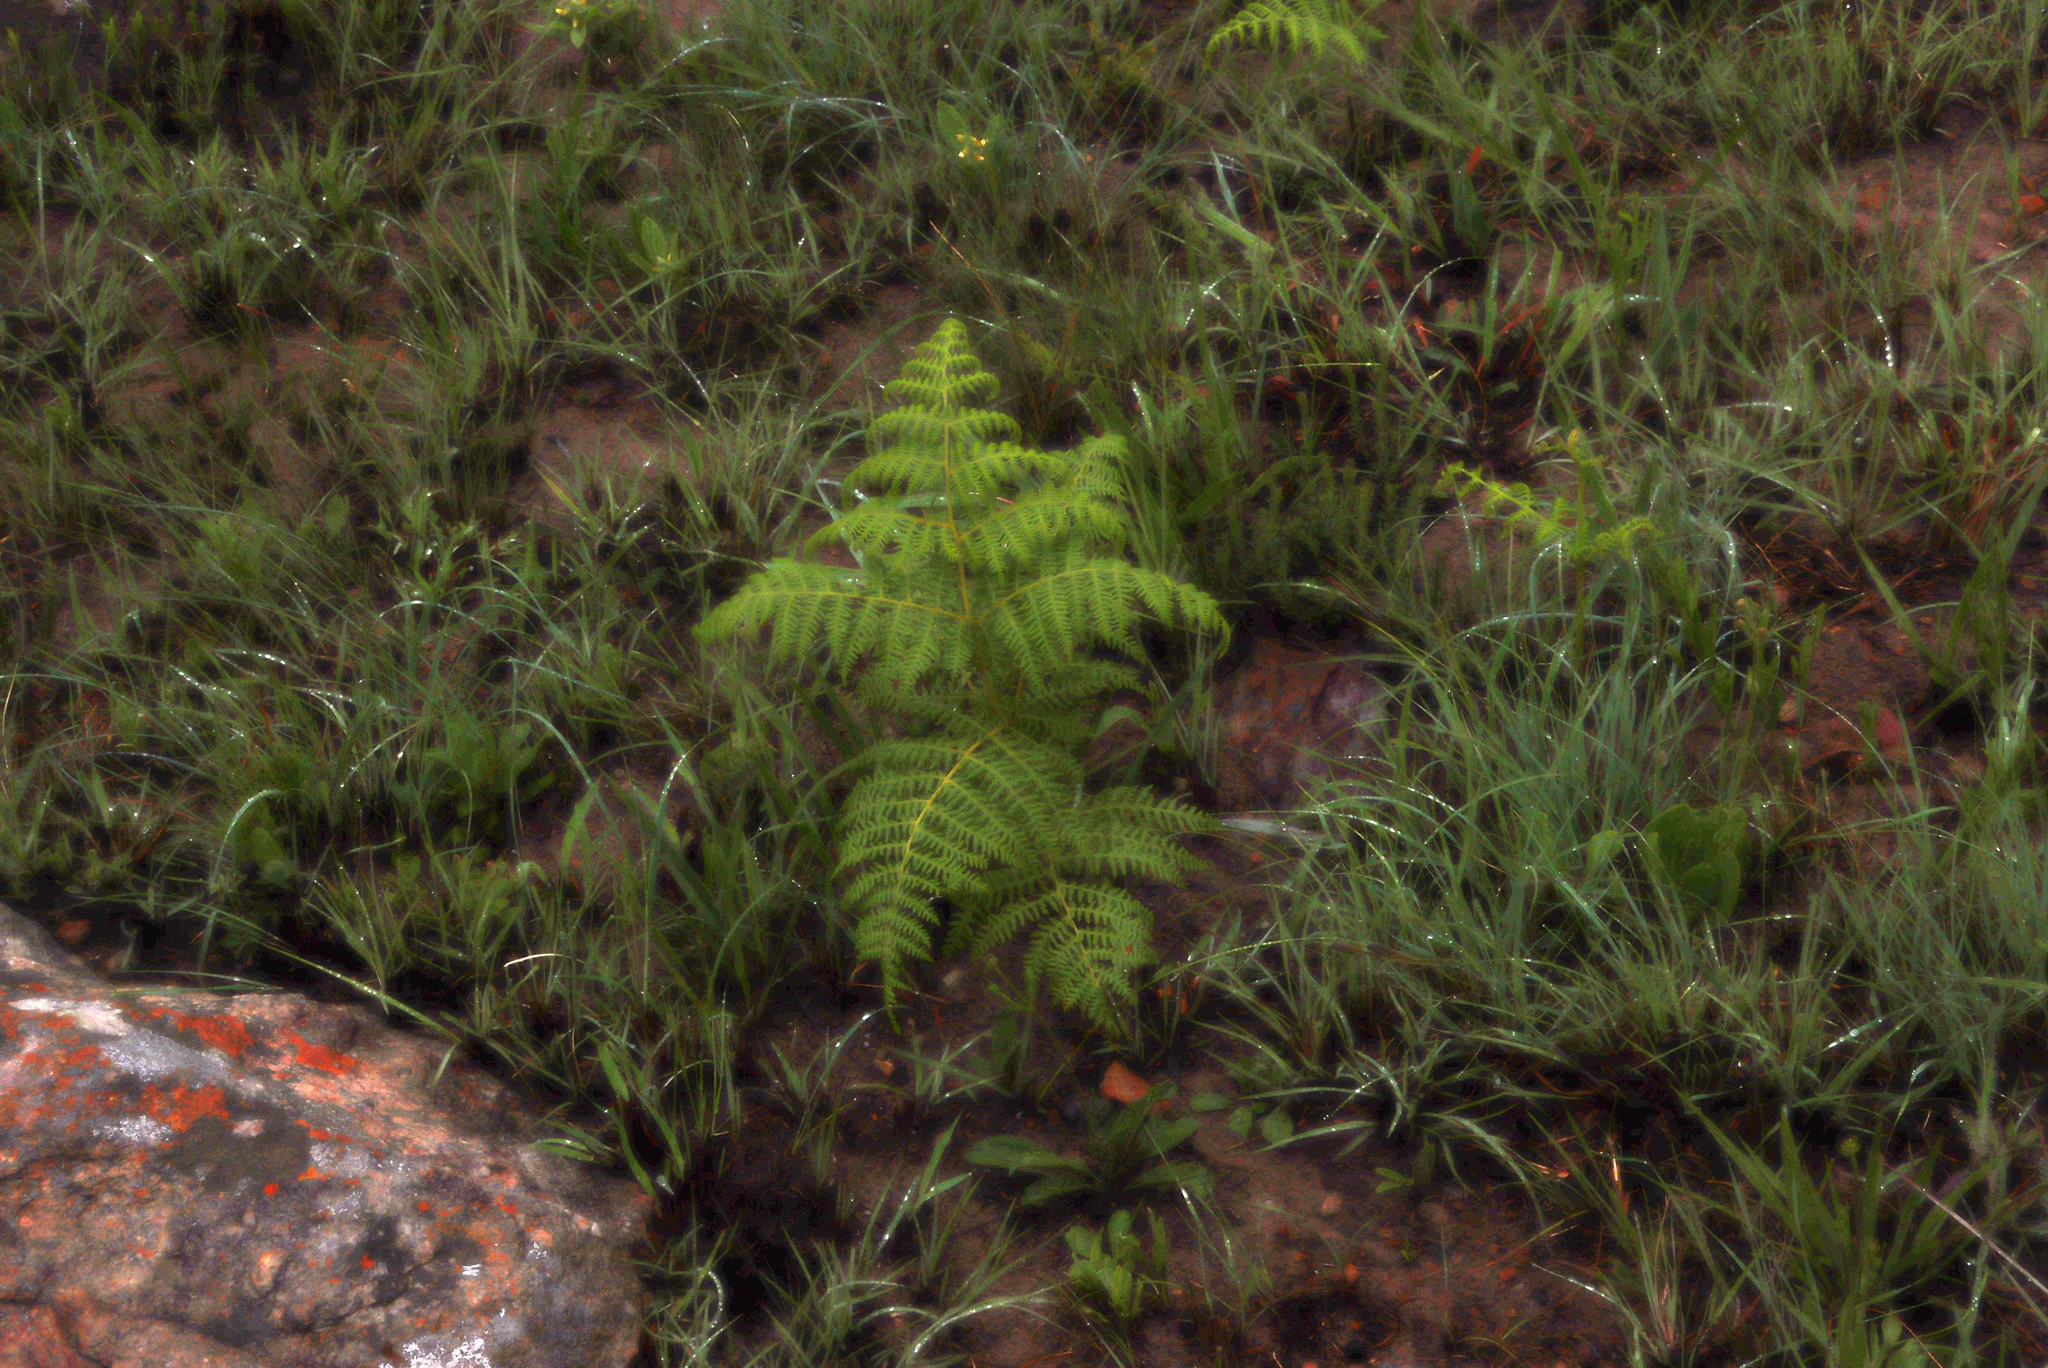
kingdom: Plantae
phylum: Tracheophyta
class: Polypodiopsida
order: Polypodiales
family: Dennstaedtiaceae
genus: Pteridium
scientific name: Pteridium aquilinum
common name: Bracken
